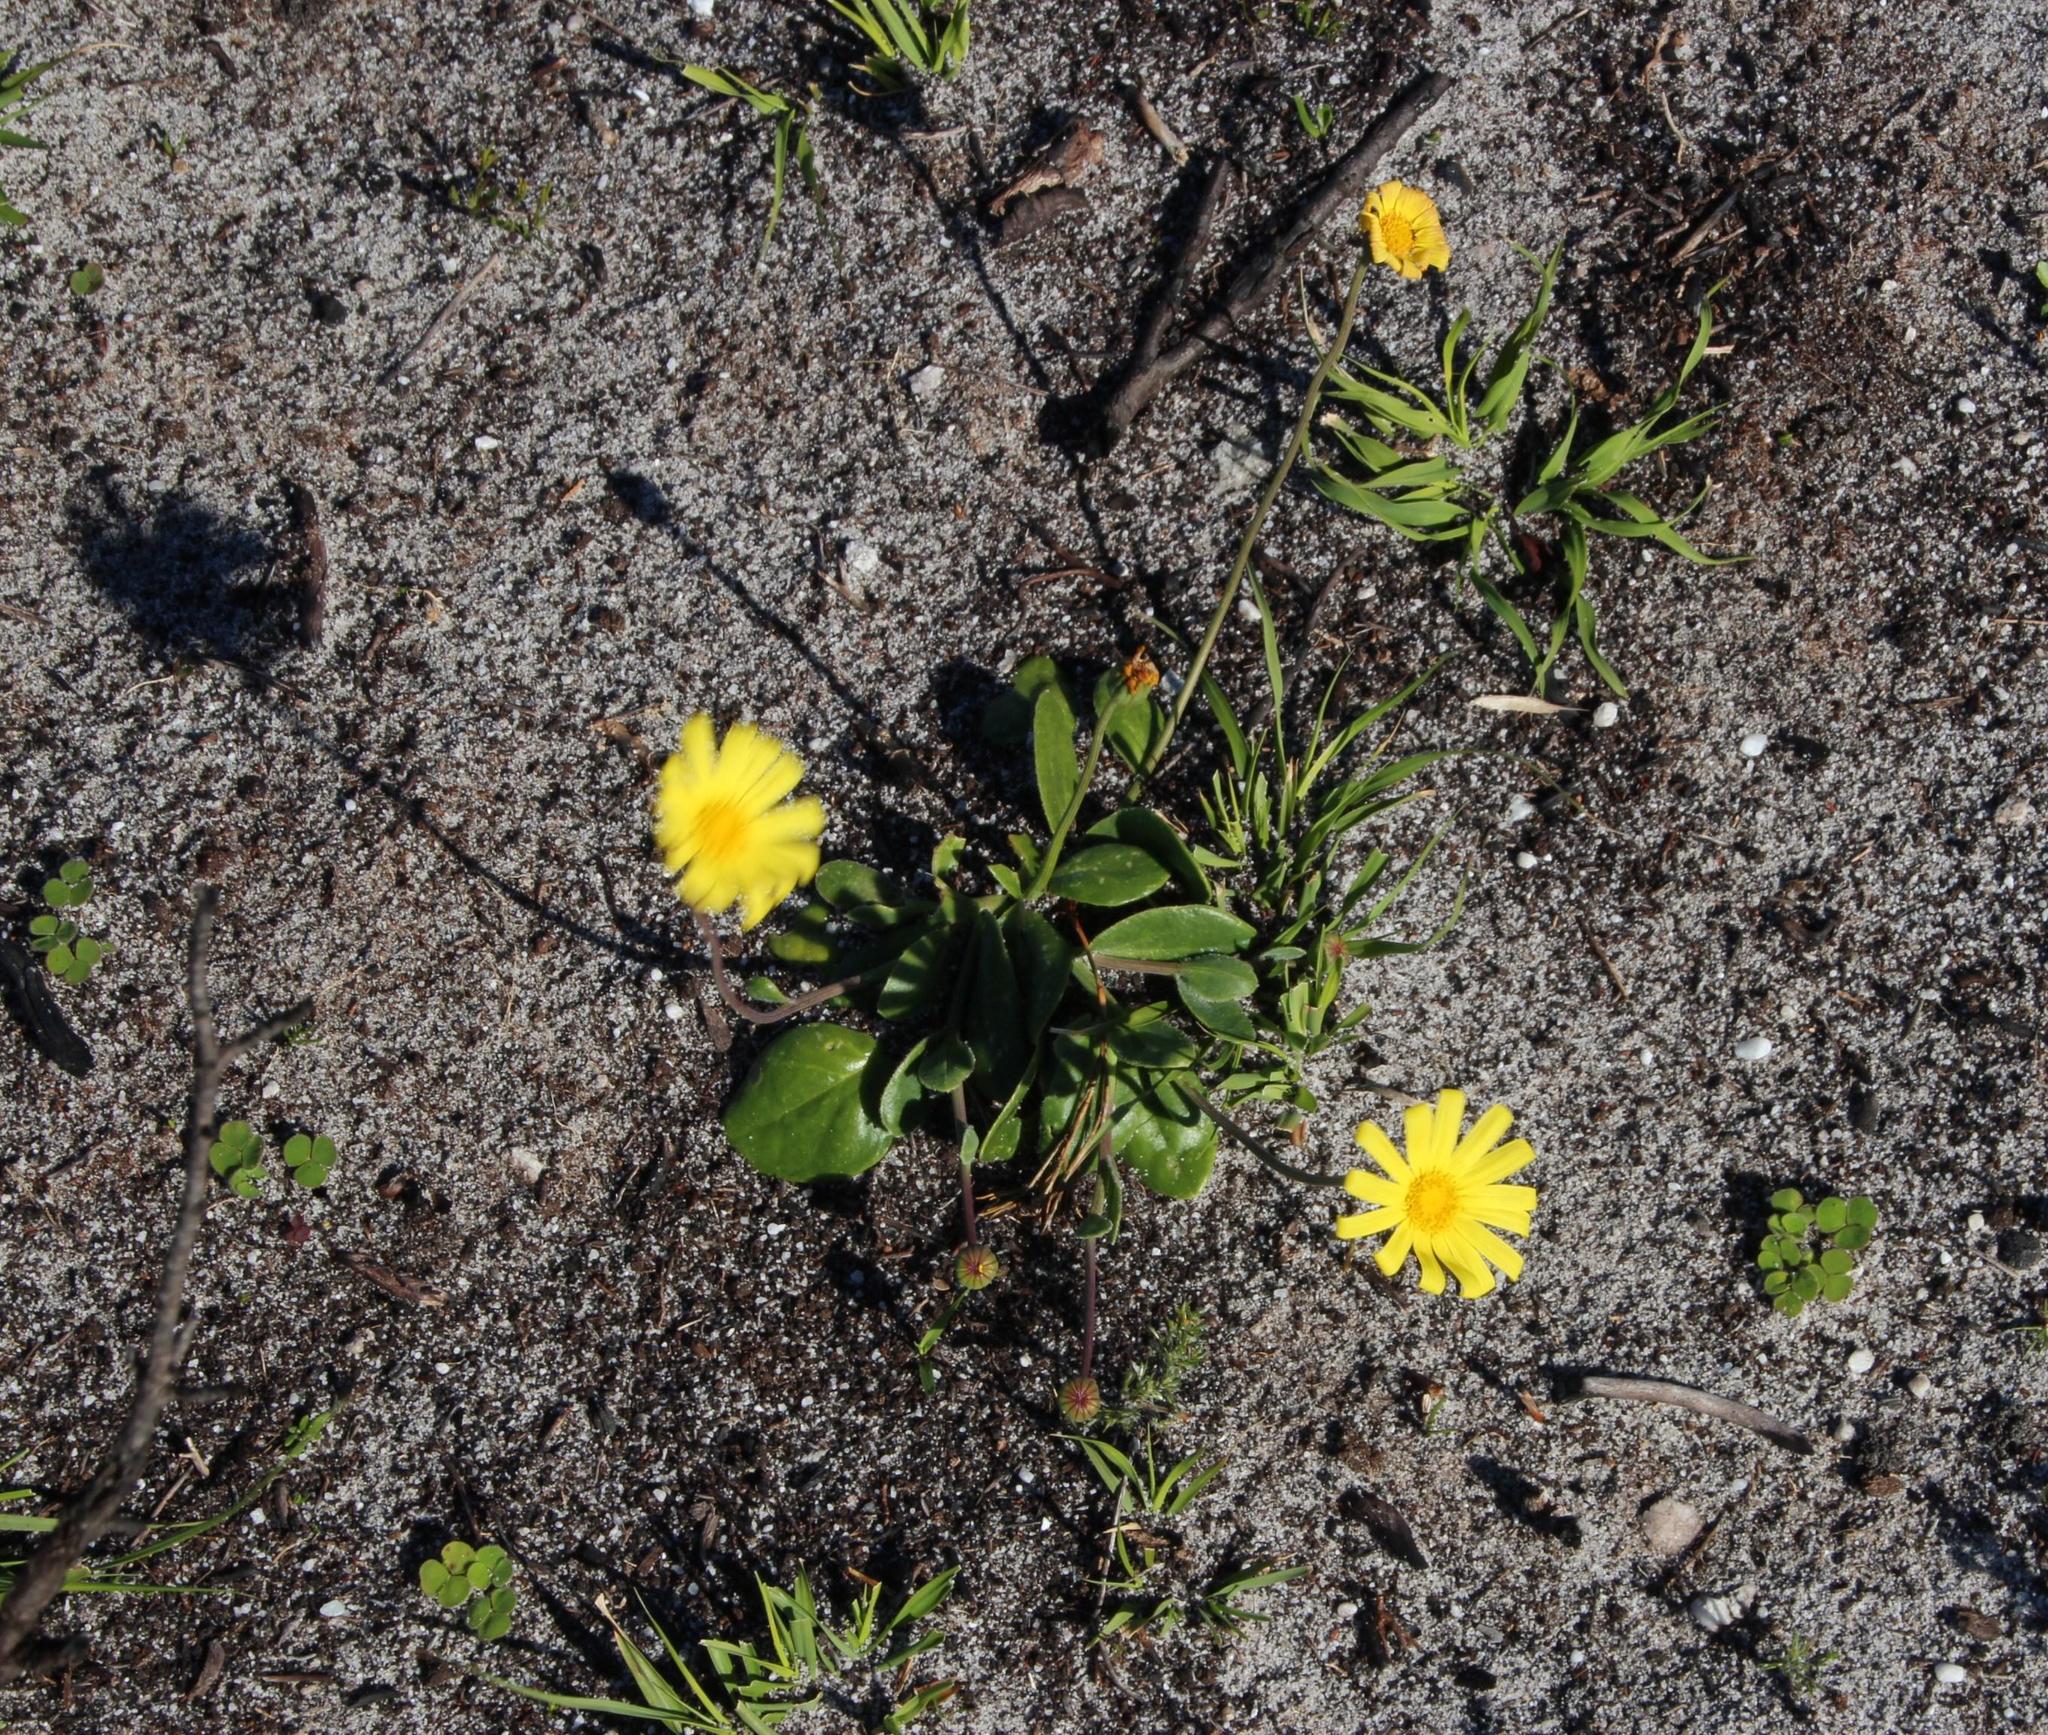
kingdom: Plantae
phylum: Tracheophyta
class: Magnoliopsida
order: Asterales
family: Asteraceae
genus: Othonna
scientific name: Othonna bulbosa
